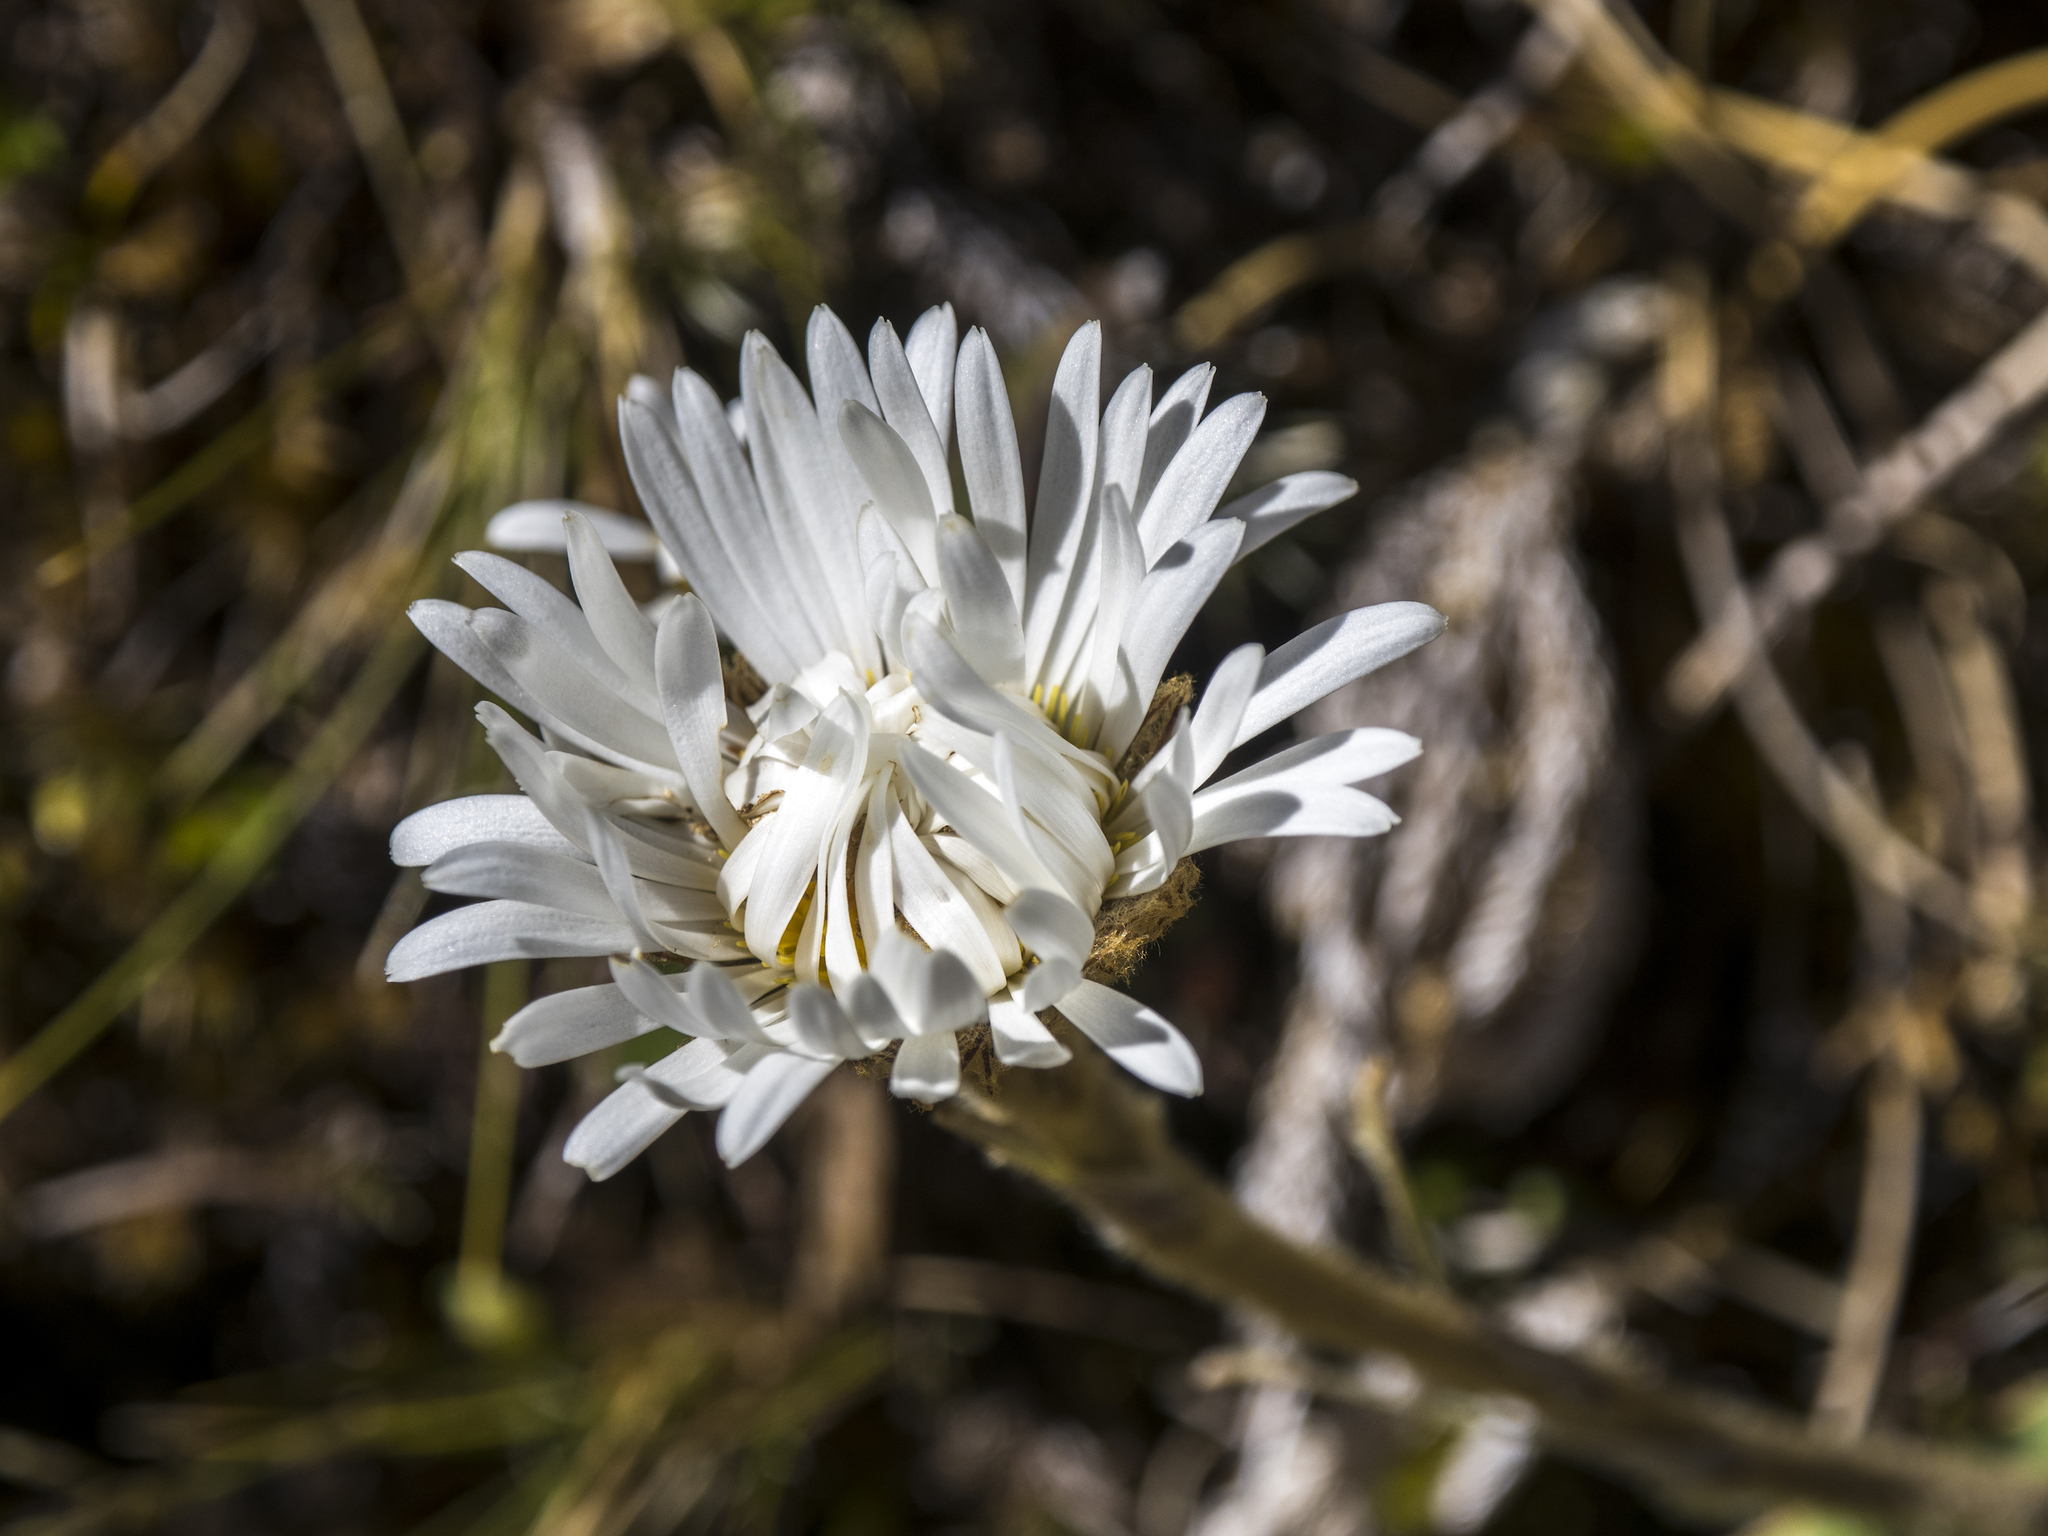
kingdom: Plantae
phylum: Tracheophyta
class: Magnoliopsida
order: Asterales
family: Asteraceae
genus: Celmisia
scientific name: Celmisia verbascifolia
